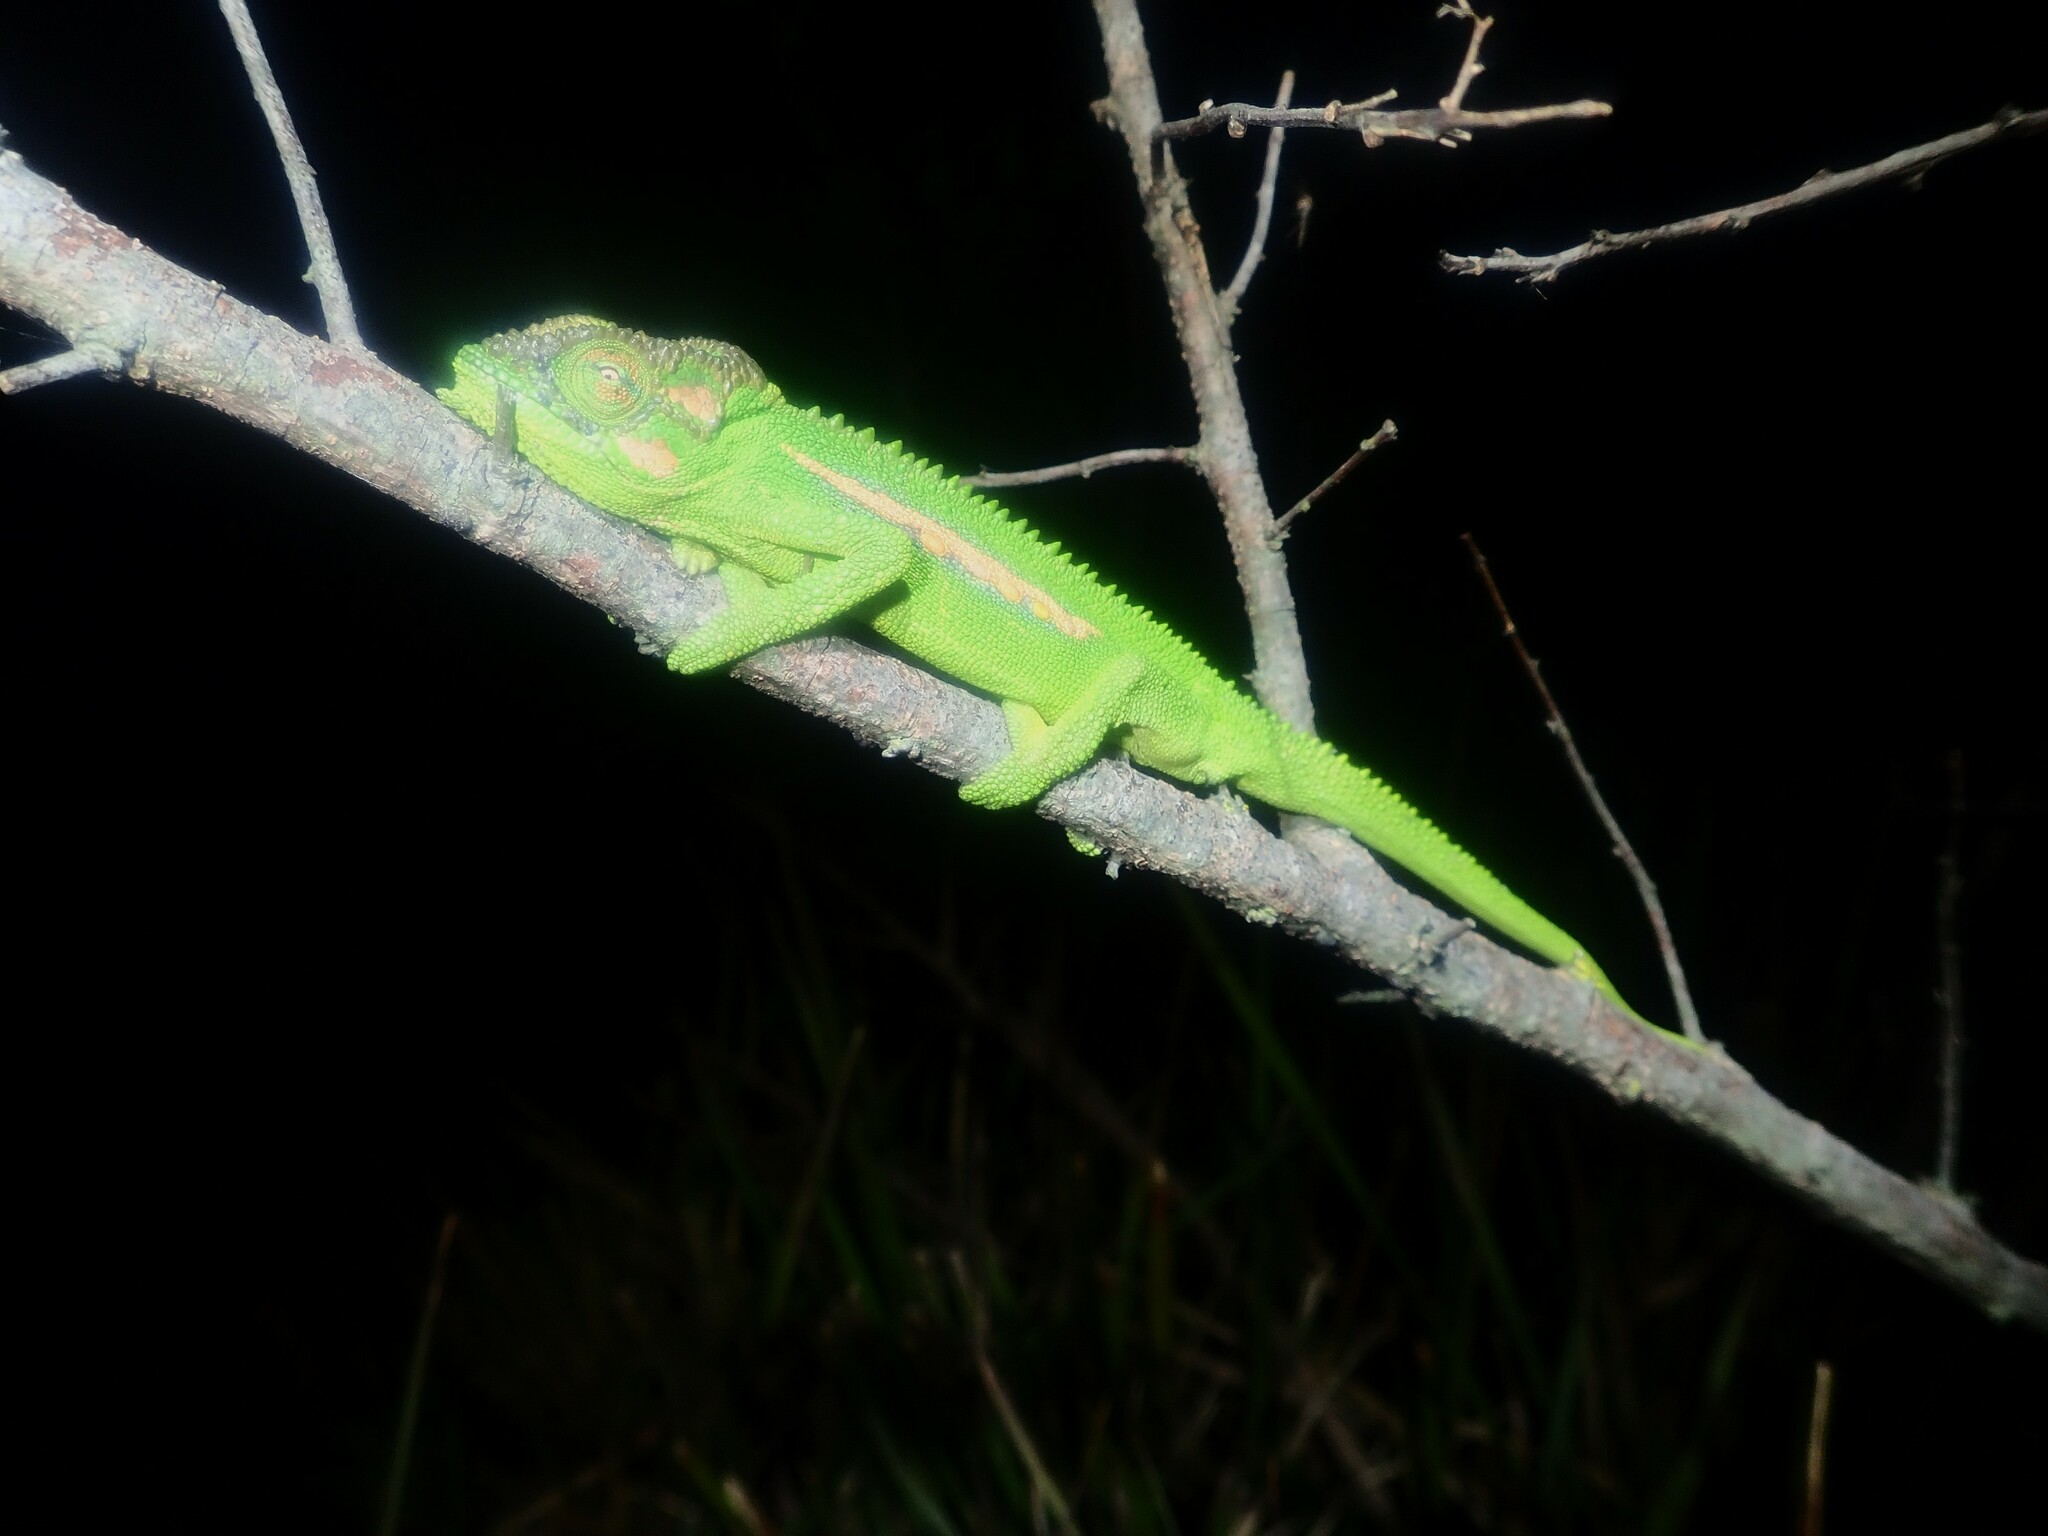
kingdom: Animalia
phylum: Chordata
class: Squamata
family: Chamaeleonidae
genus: Bradypodion
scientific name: Bradypodion pumilum
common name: Cape dwarf chameleon
